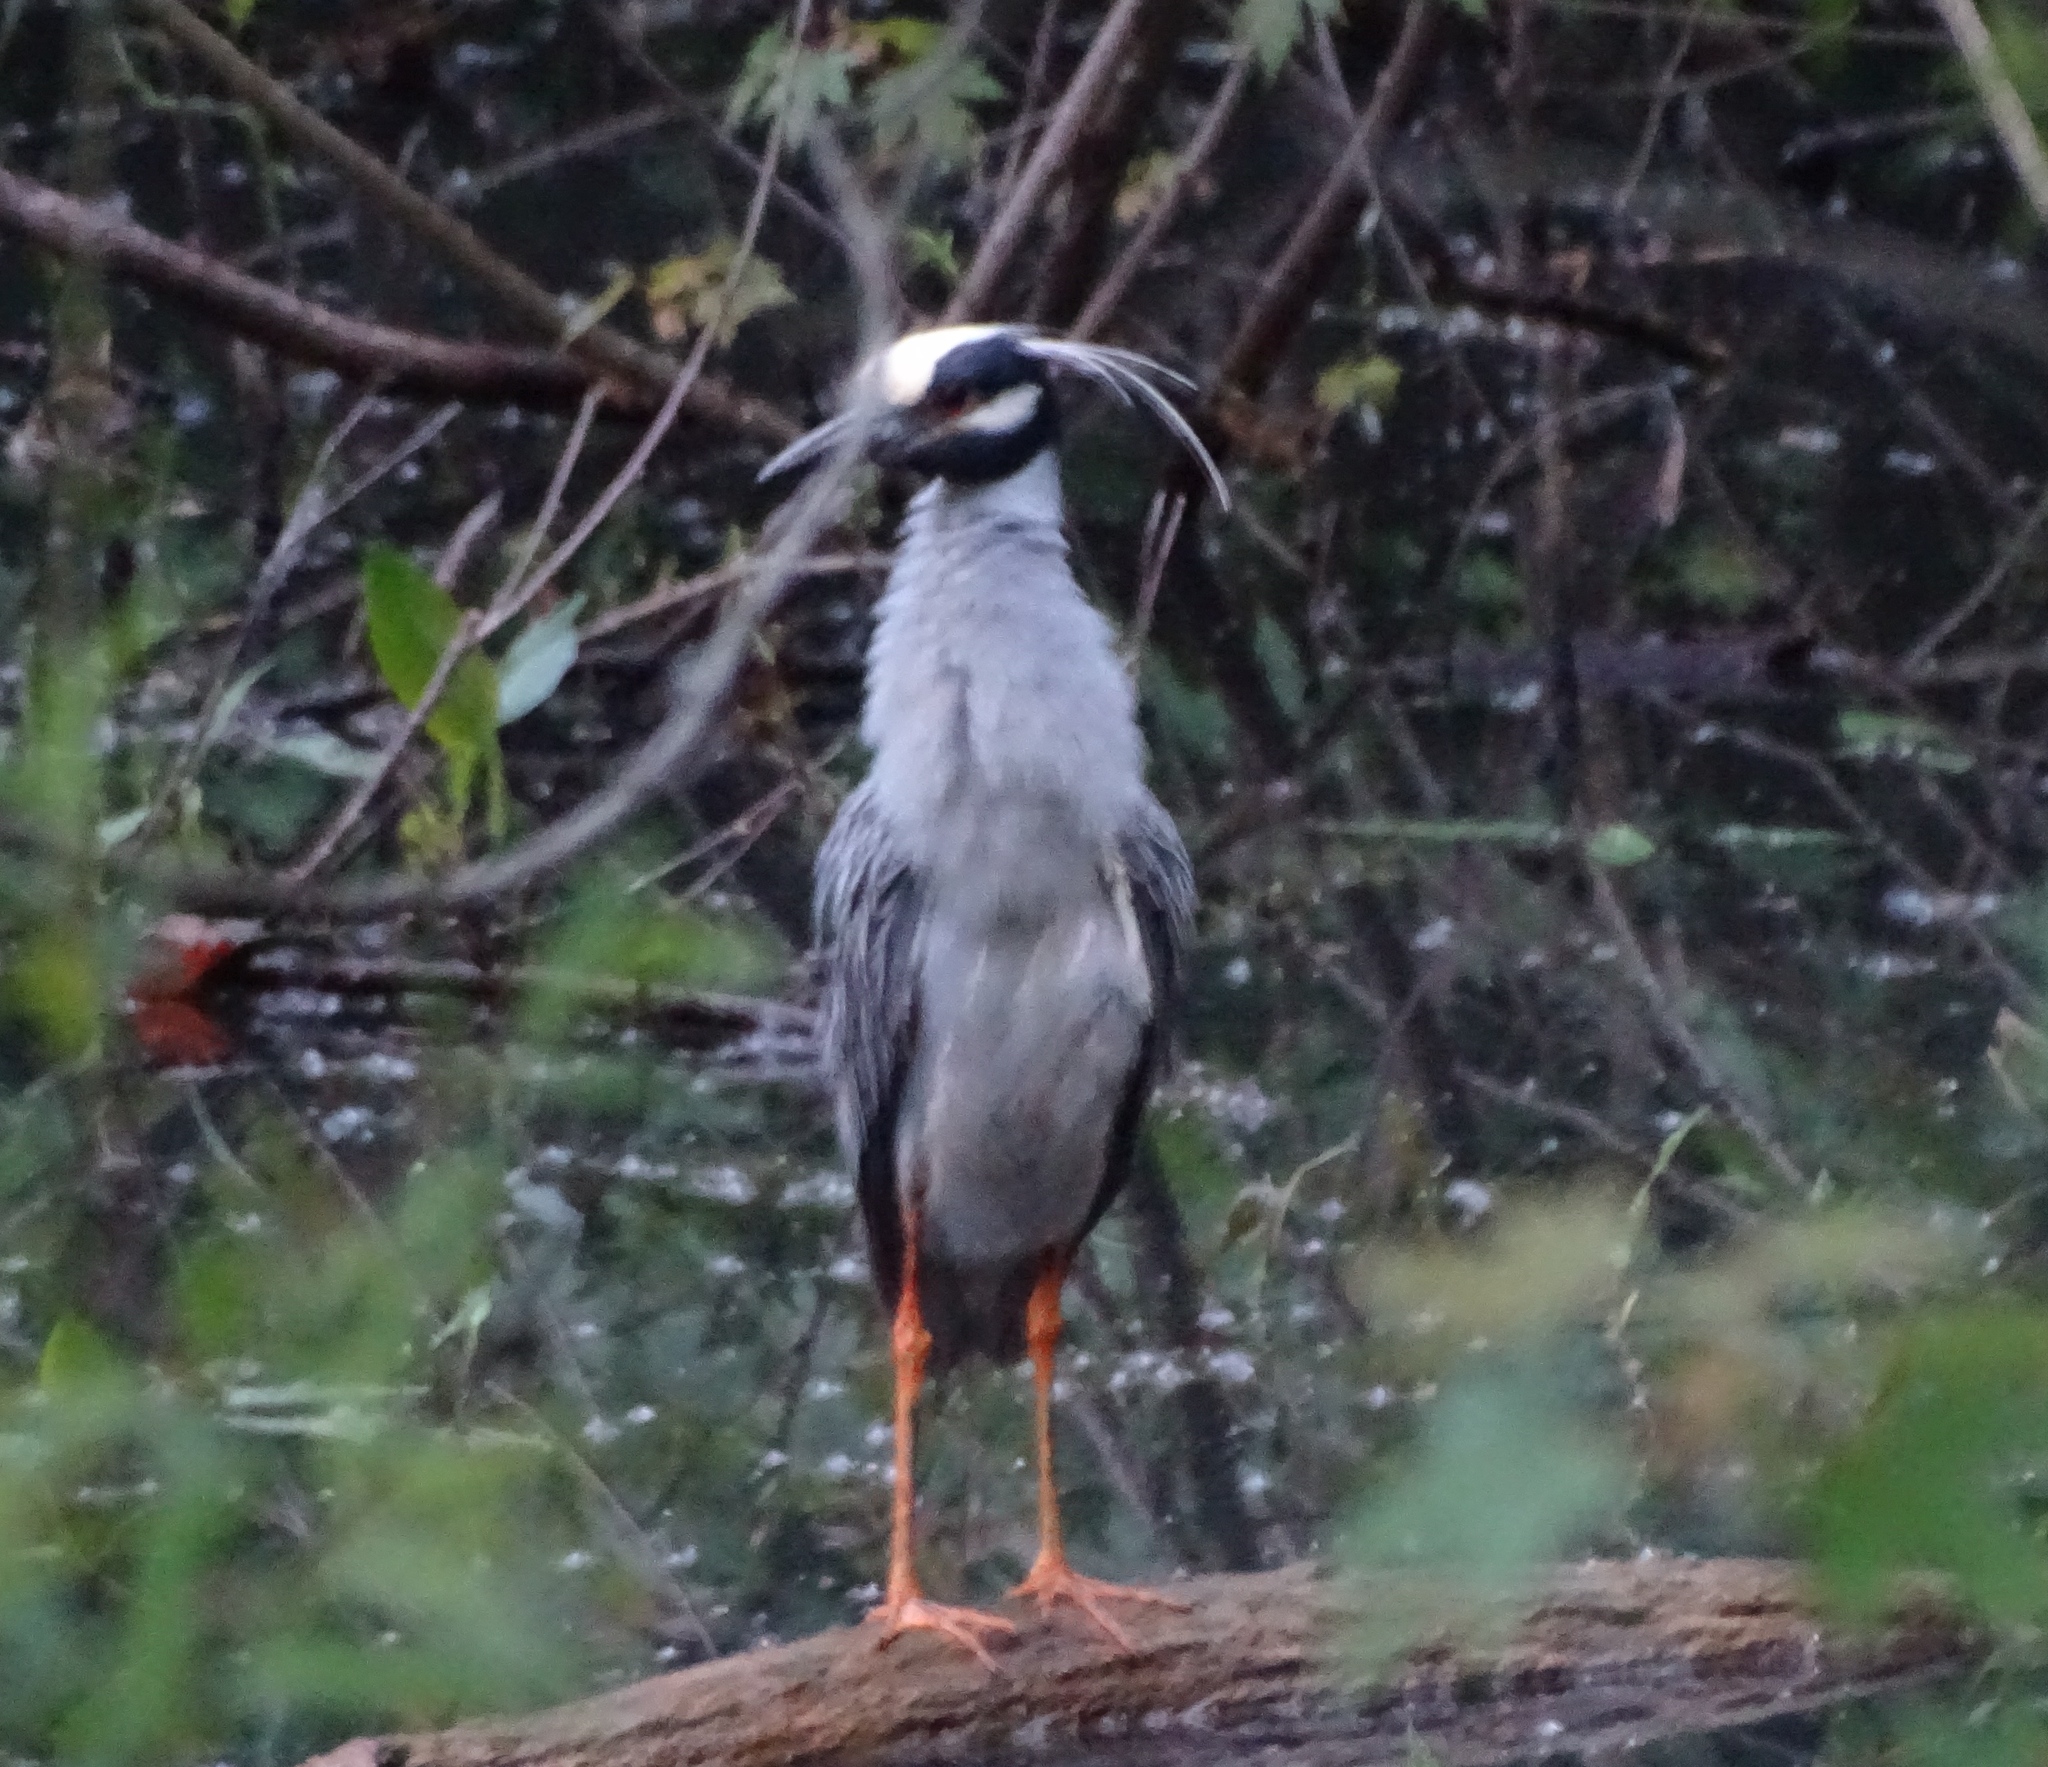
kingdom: Animalia
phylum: Chordata
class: Aves
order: Pelecaniformes
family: Ardeidae
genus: Nyctanassa
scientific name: Nyctanassa violacea
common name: Yellow-crowned night heron
